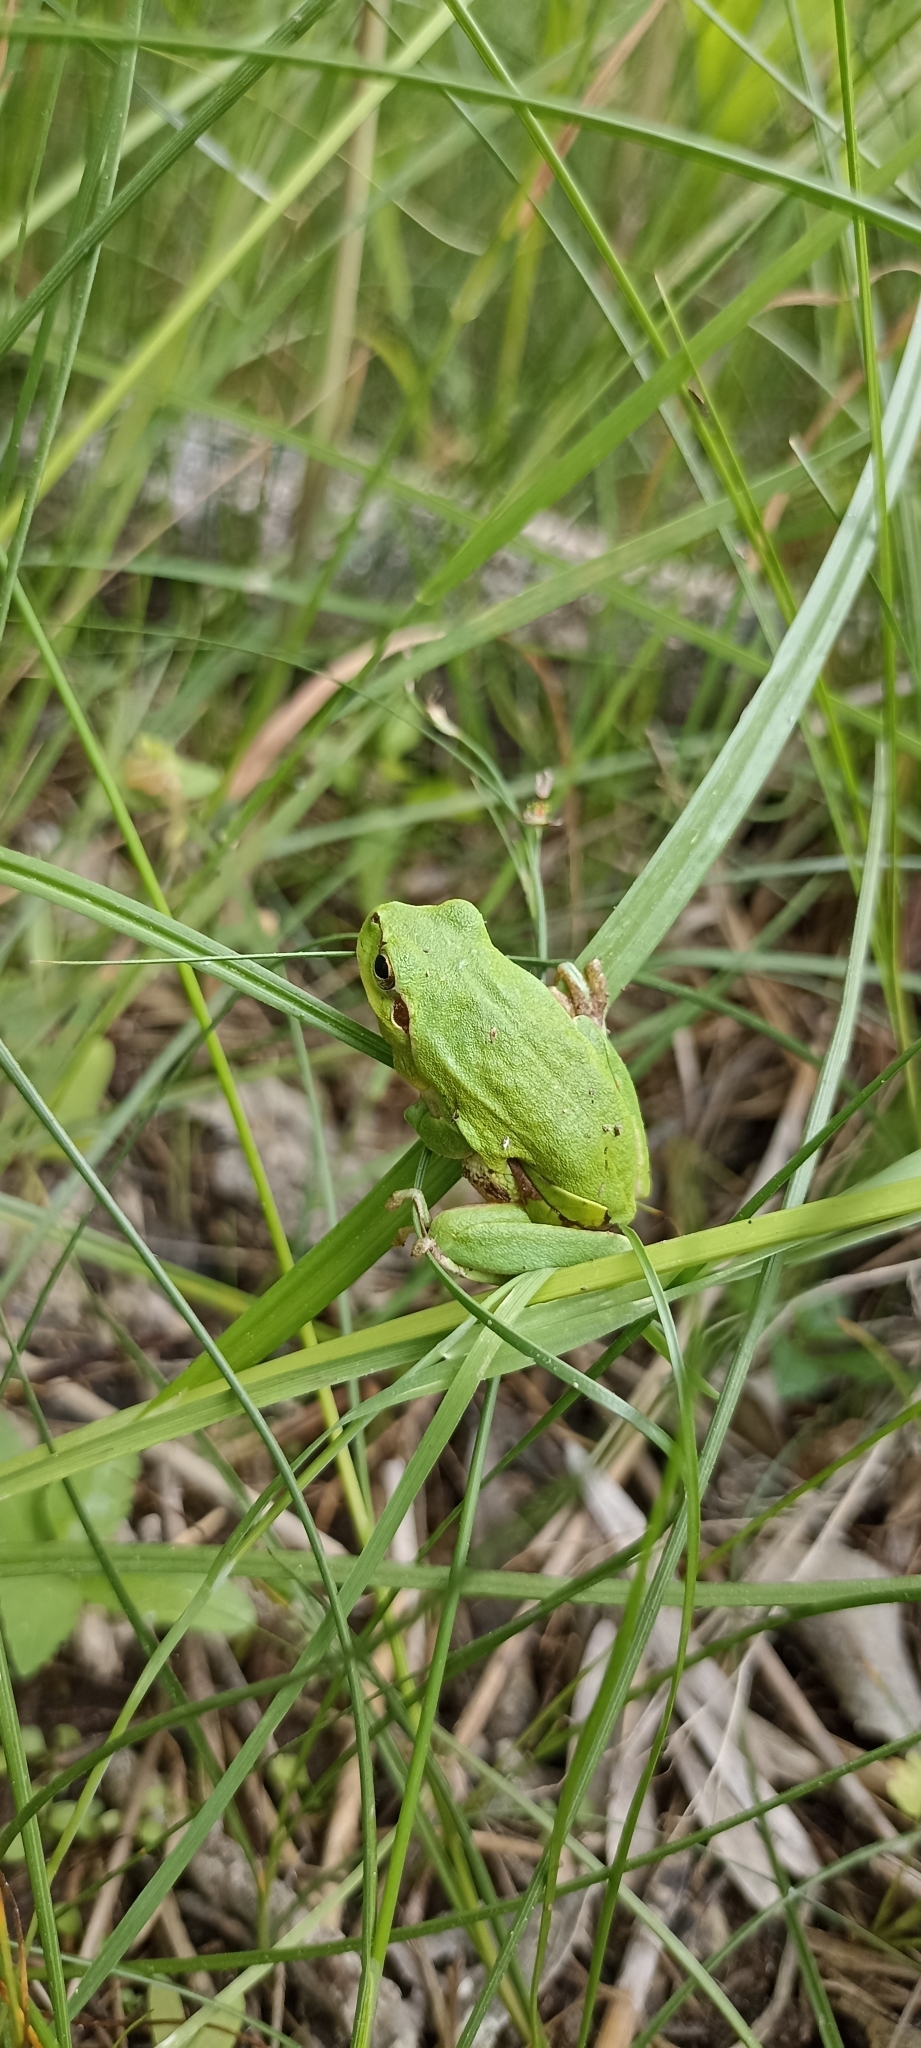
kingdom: Animalia
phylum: Chordata
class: Amphibia
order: Anura
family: Hylidae
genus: Hyla
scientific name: Hyla meridionalis
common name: Stripeless tree frog
